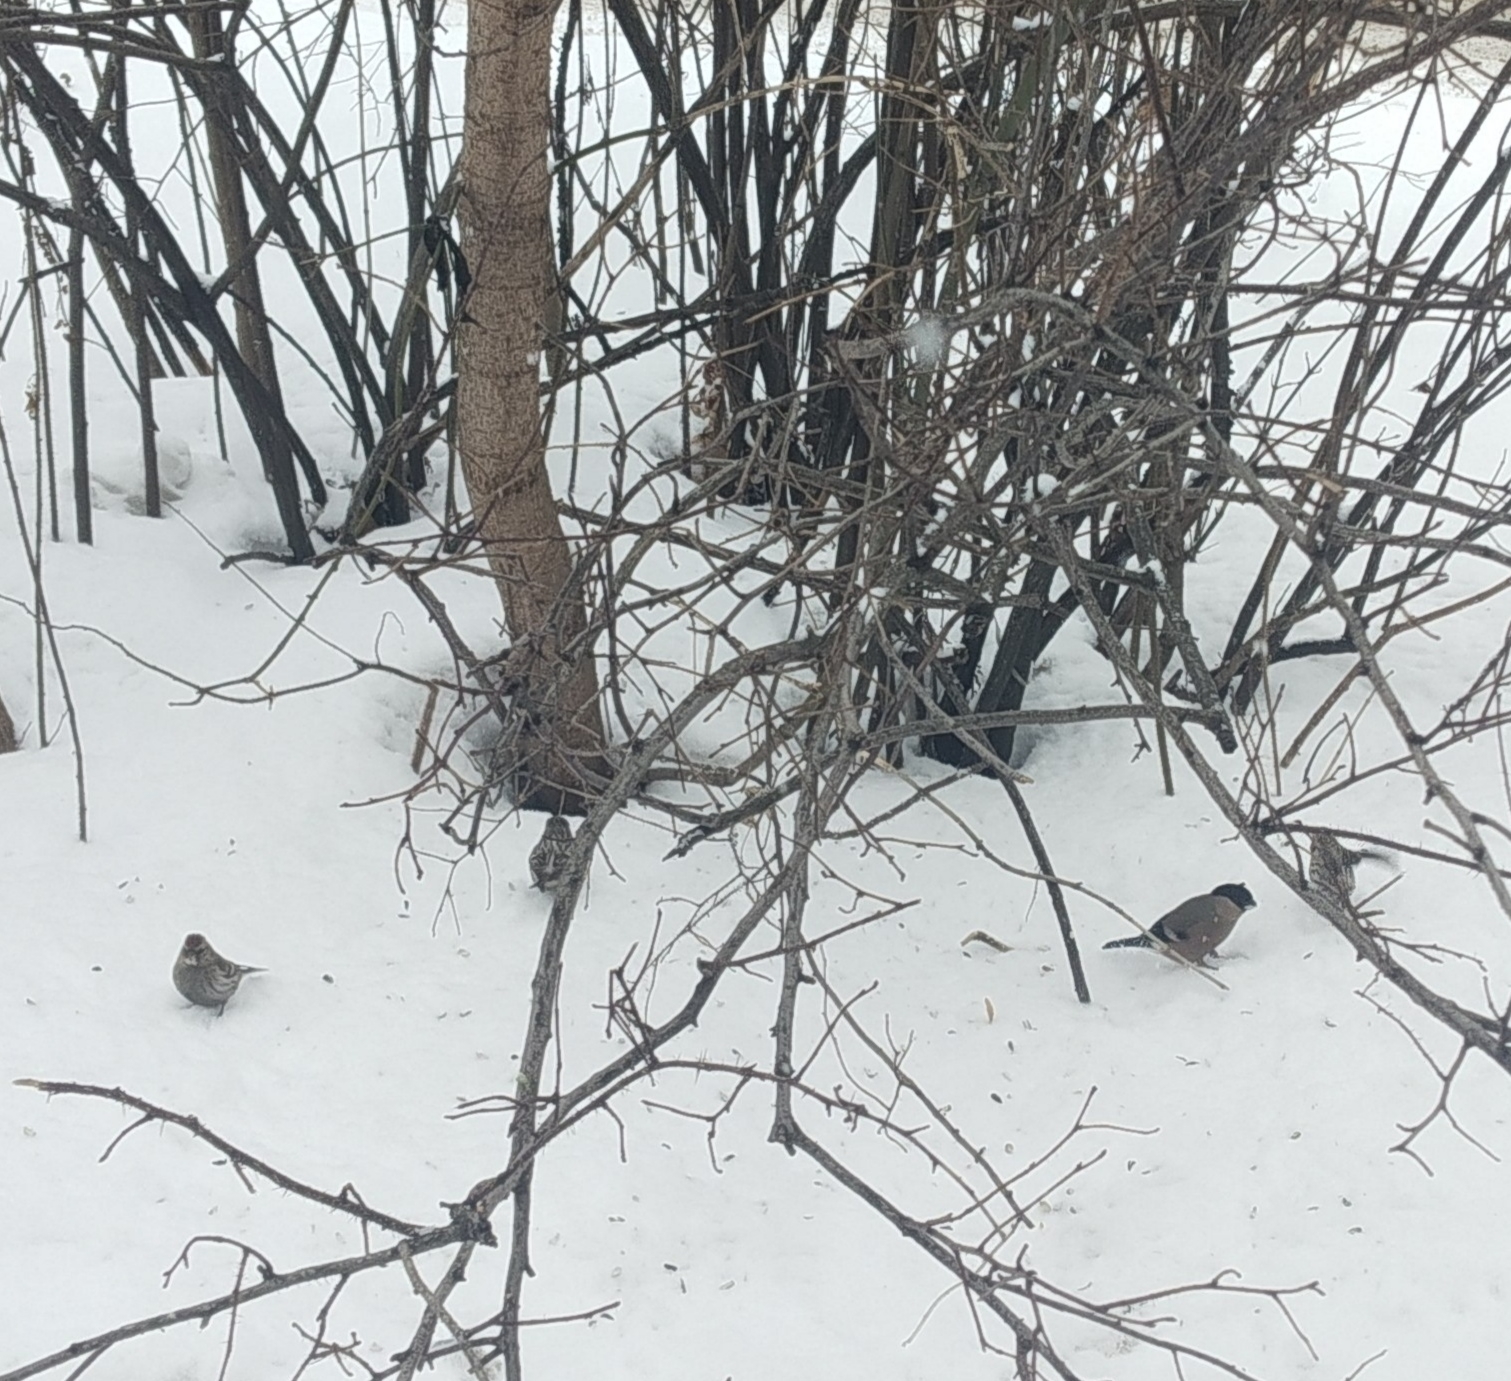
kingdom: Animalia
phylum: Chordata
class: Aves
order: Passeriformes
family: Fringillidae
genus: Pyrrhula
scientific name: Pyrrhula pyrrhula
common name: Eurasian bullfinch
